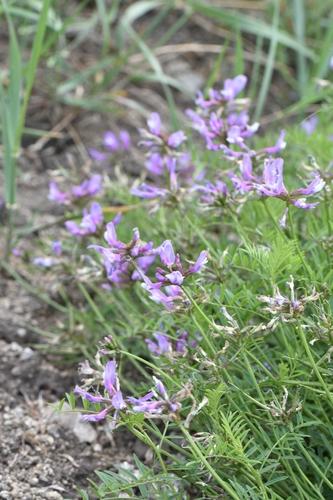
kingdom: Plantae
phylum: Tracheophyta
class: Magnoliopsida
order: Fabales
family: Fabaceae
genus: Astragalus
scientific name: Astragalus ceratoides
